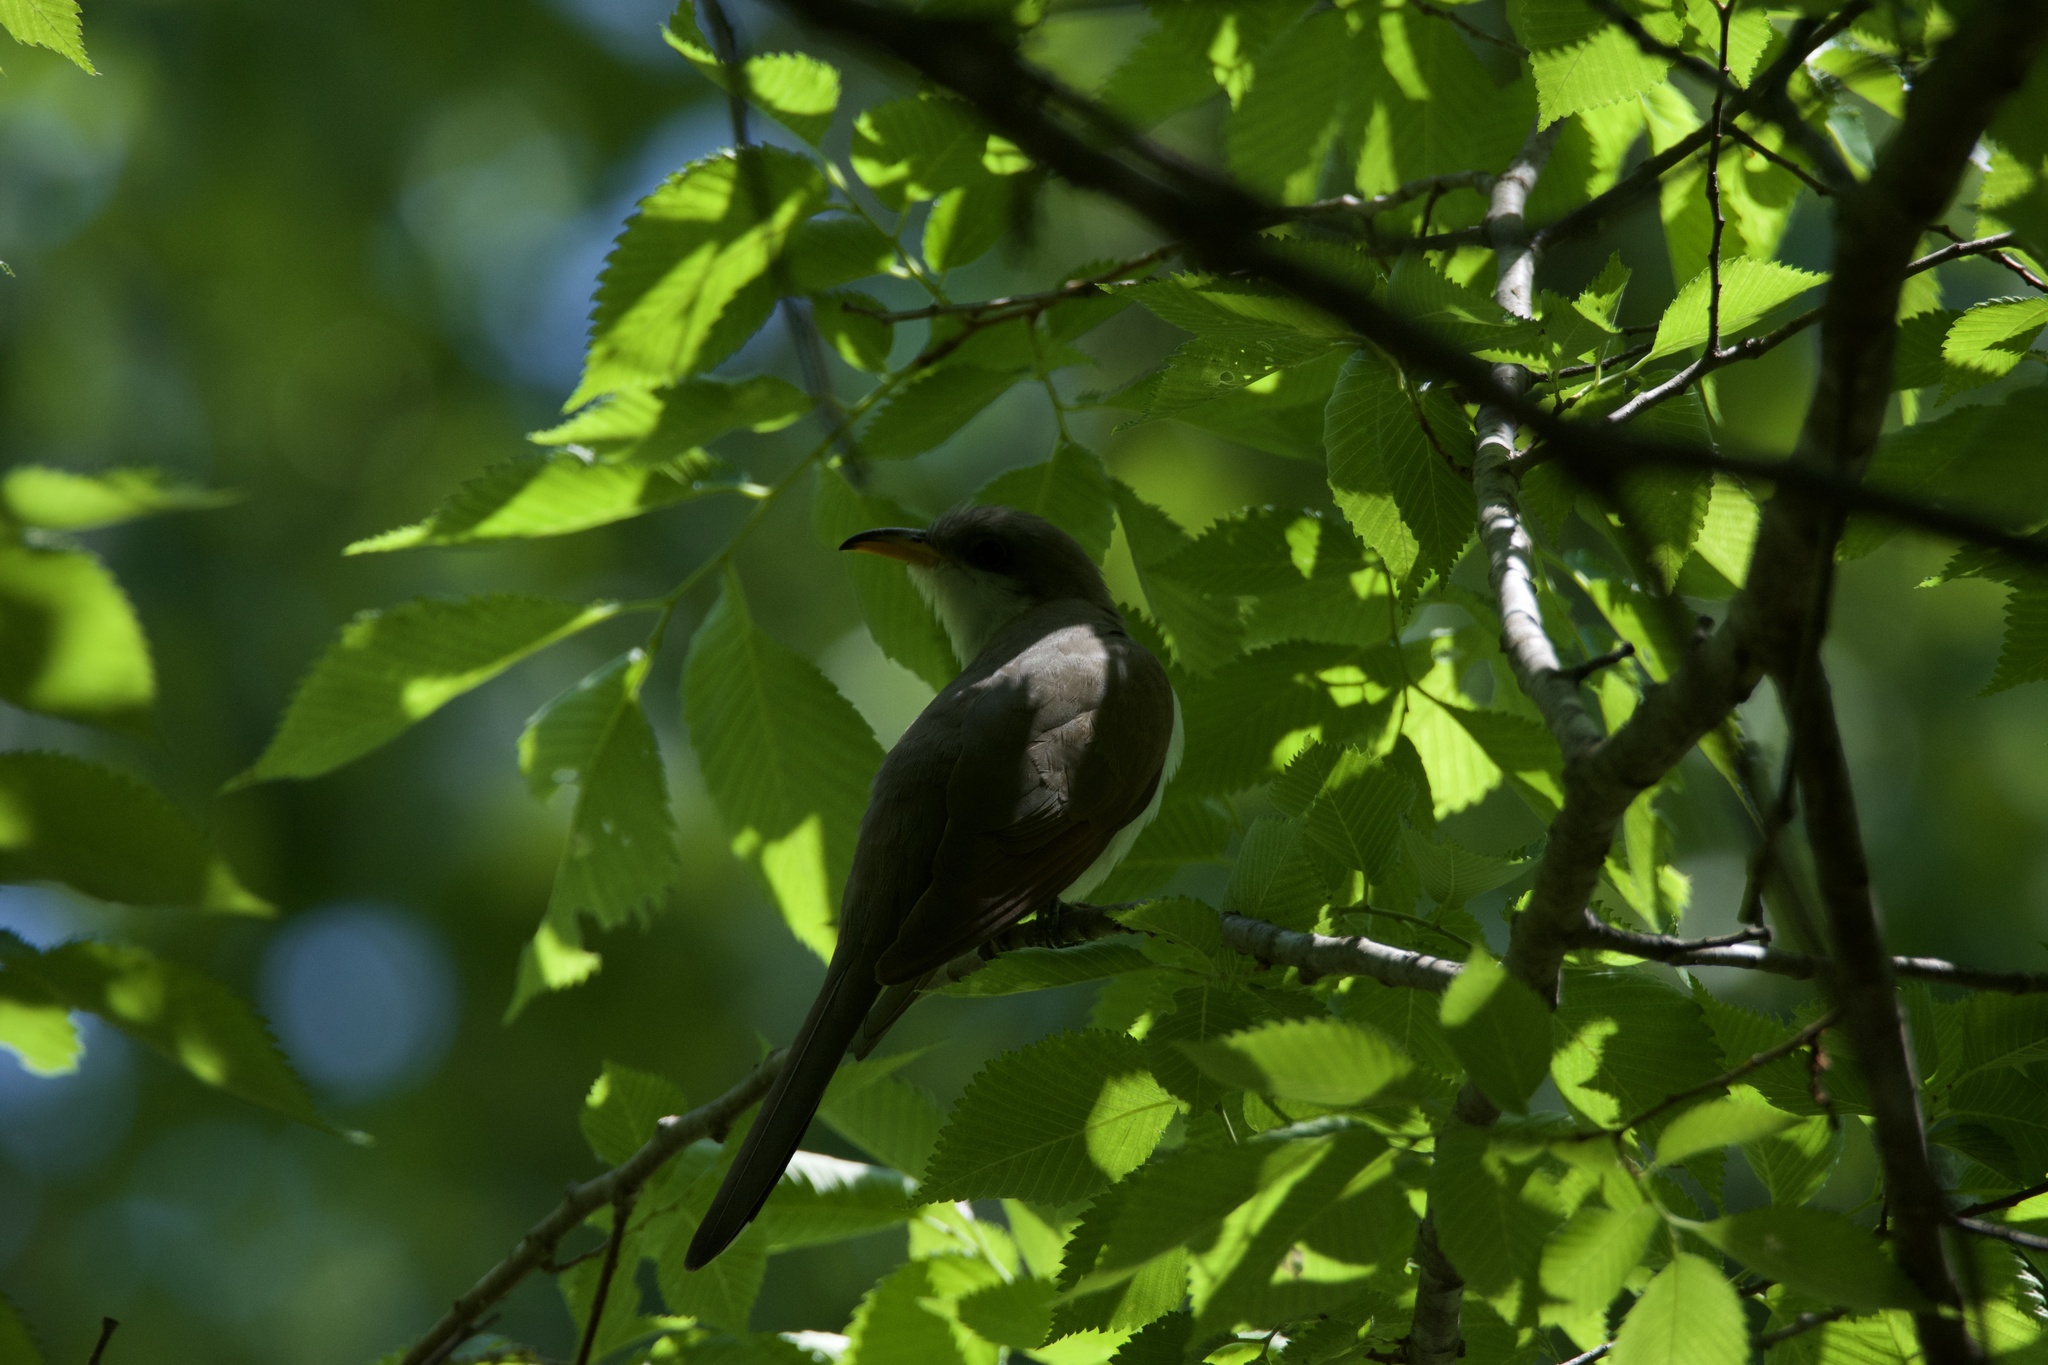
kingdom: Animalia
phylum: Chordata
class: Aves
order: Cuculiformes
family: Cuculidae
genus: Coccyzus
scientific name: Coccyzus americanus
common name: Yellow-billed cuckoo
